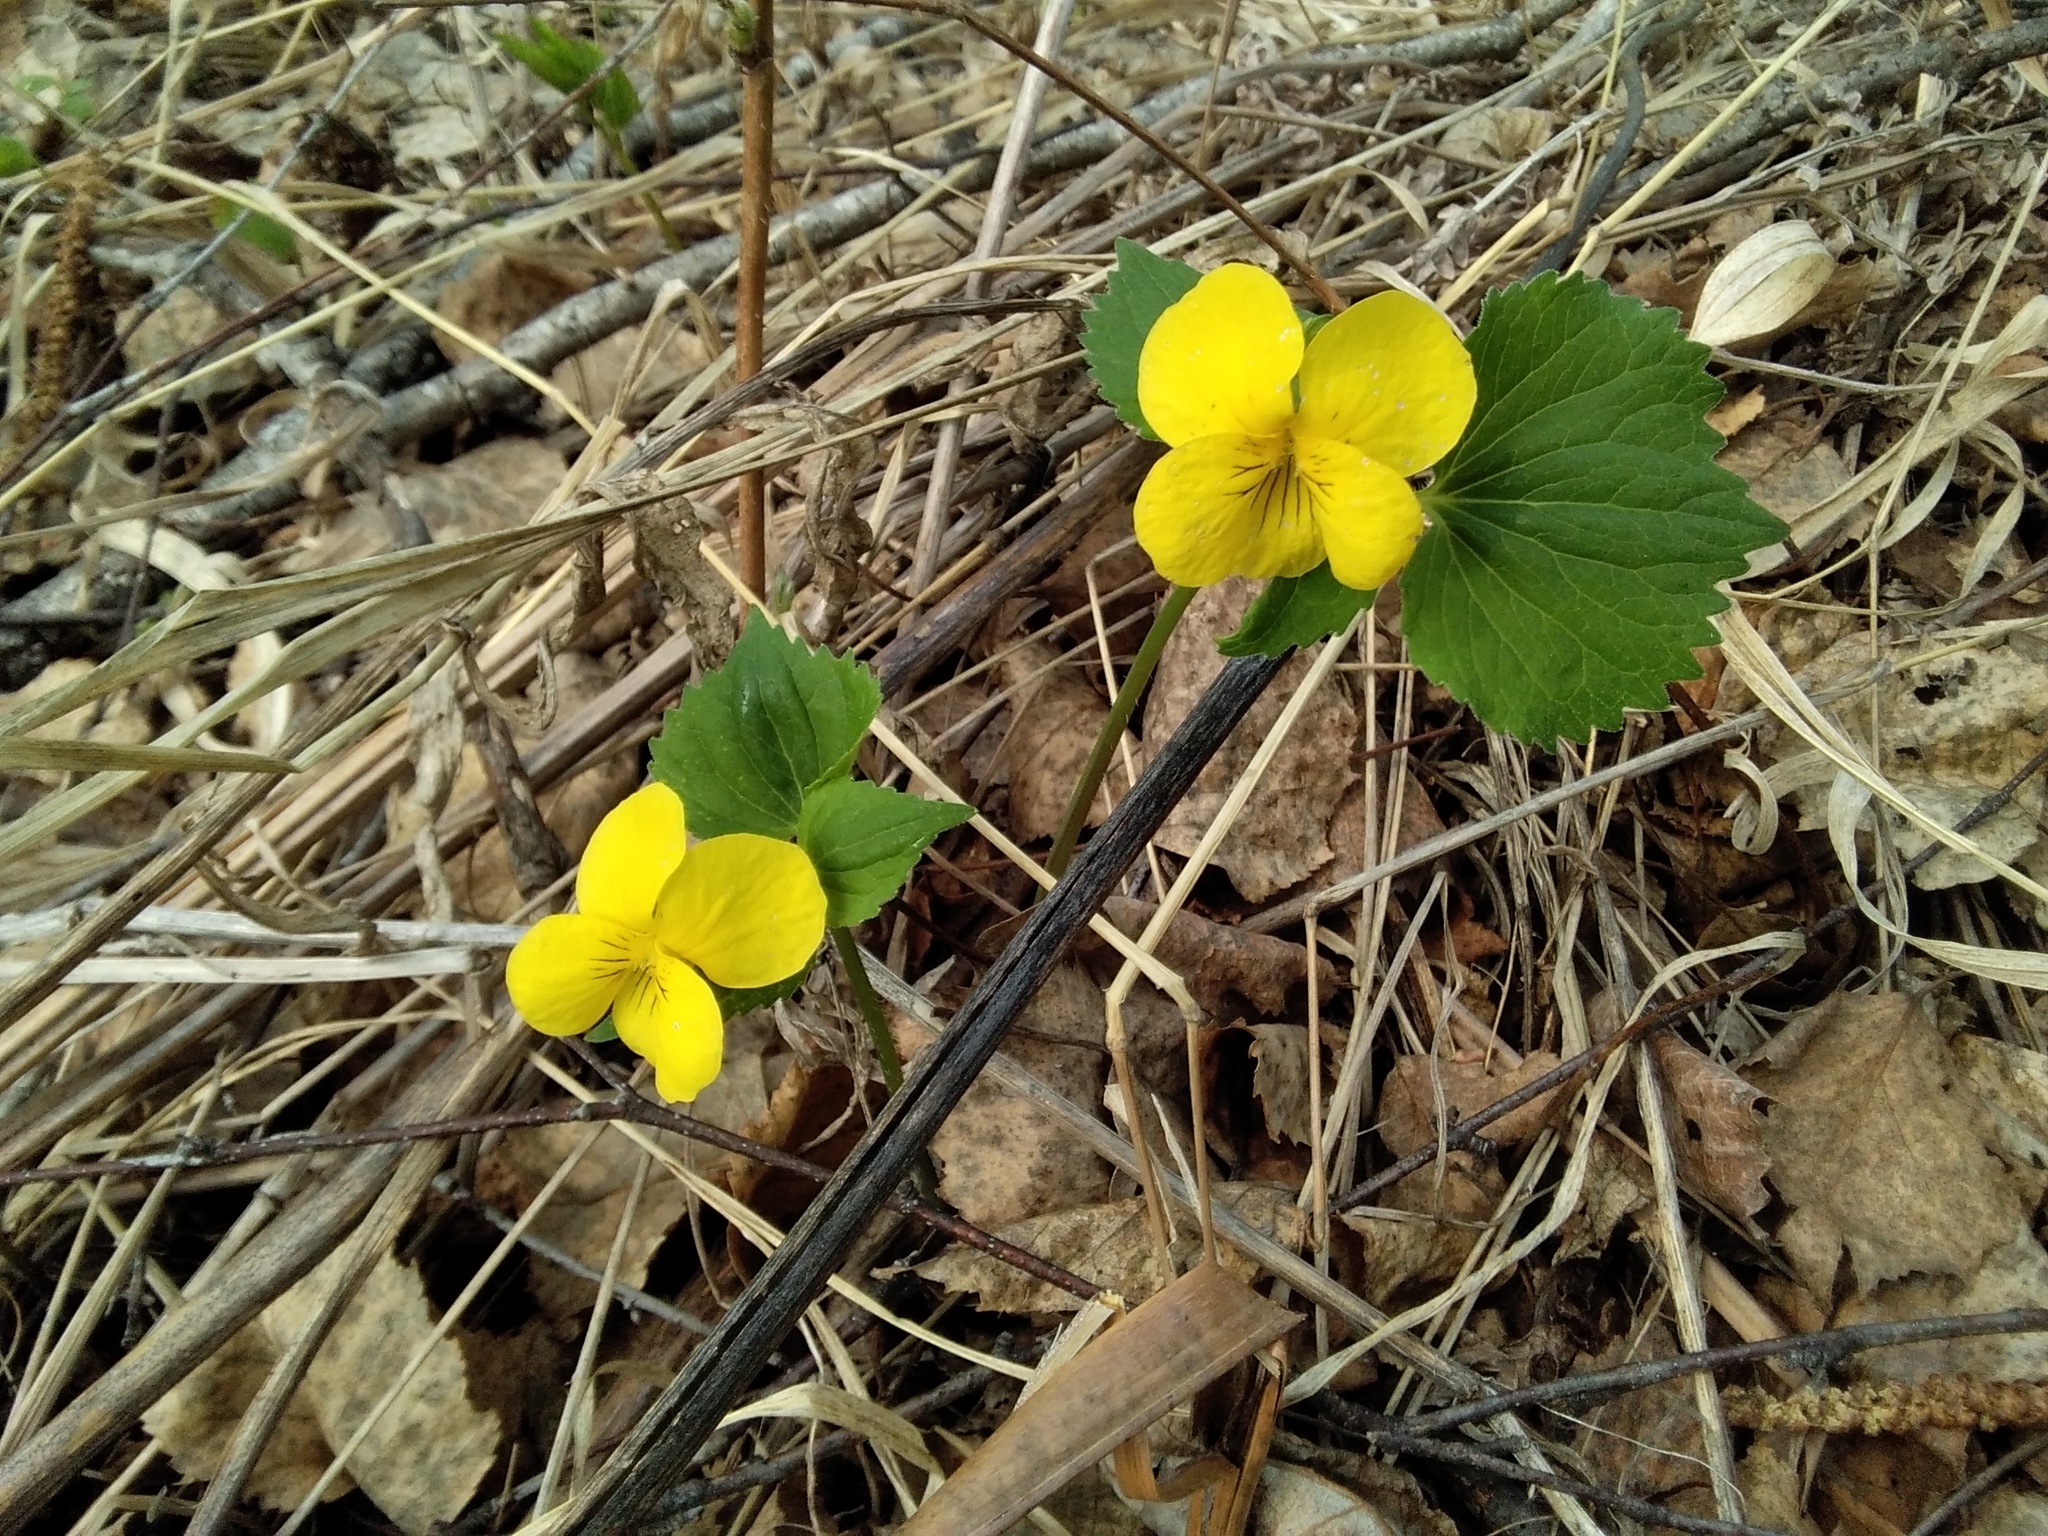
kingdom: Plantae
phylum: Tracheophyta
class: Magnoliopsida
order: Malpighiales
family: Violaceae
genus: Viola
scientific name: Viola uniflora
